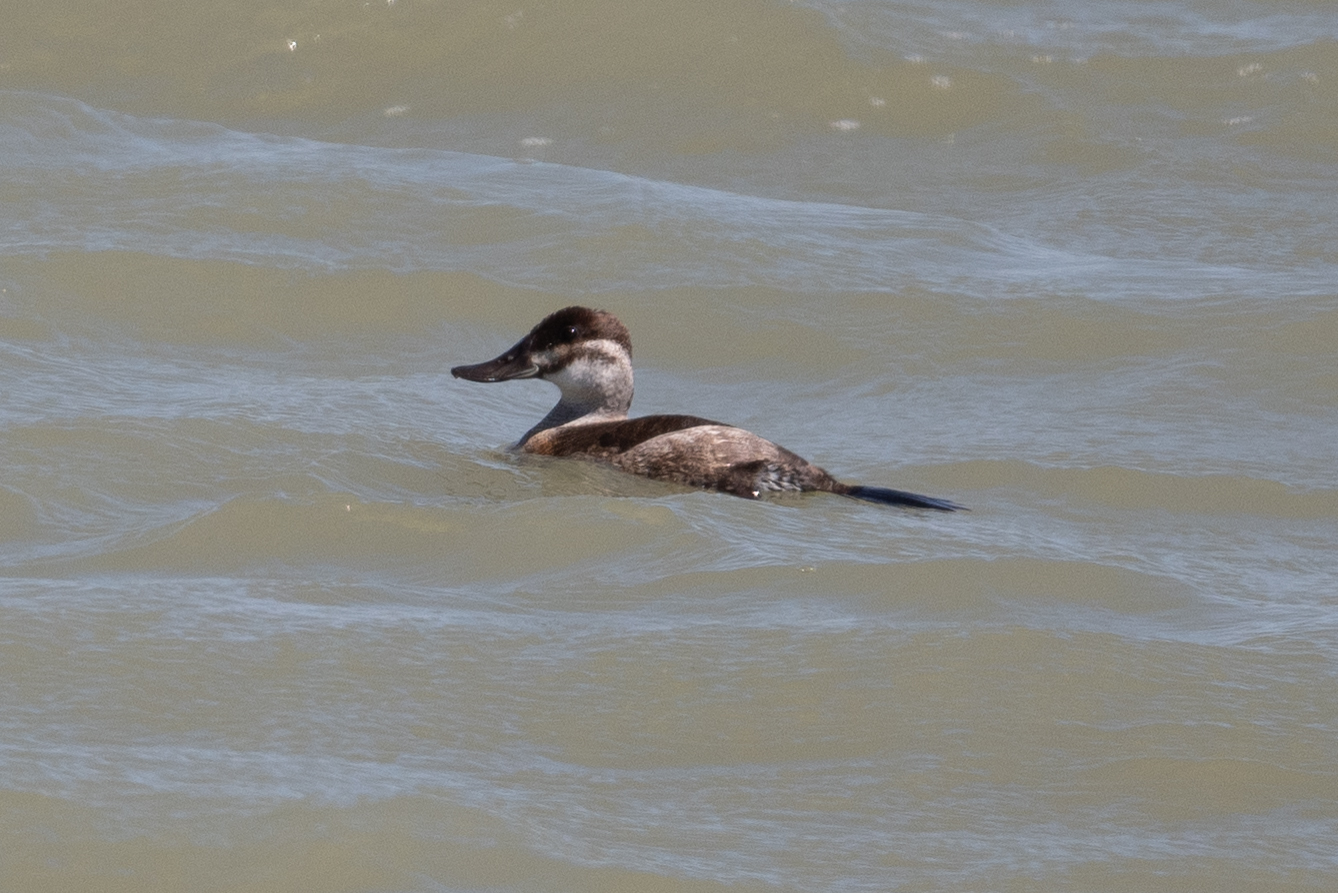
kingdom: Animalia
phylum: Chordata
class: Aves
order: Anseriformes
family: Anatidae
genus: Oxyura
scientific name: Oxyura jamaicensis
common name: Ruddy duck
